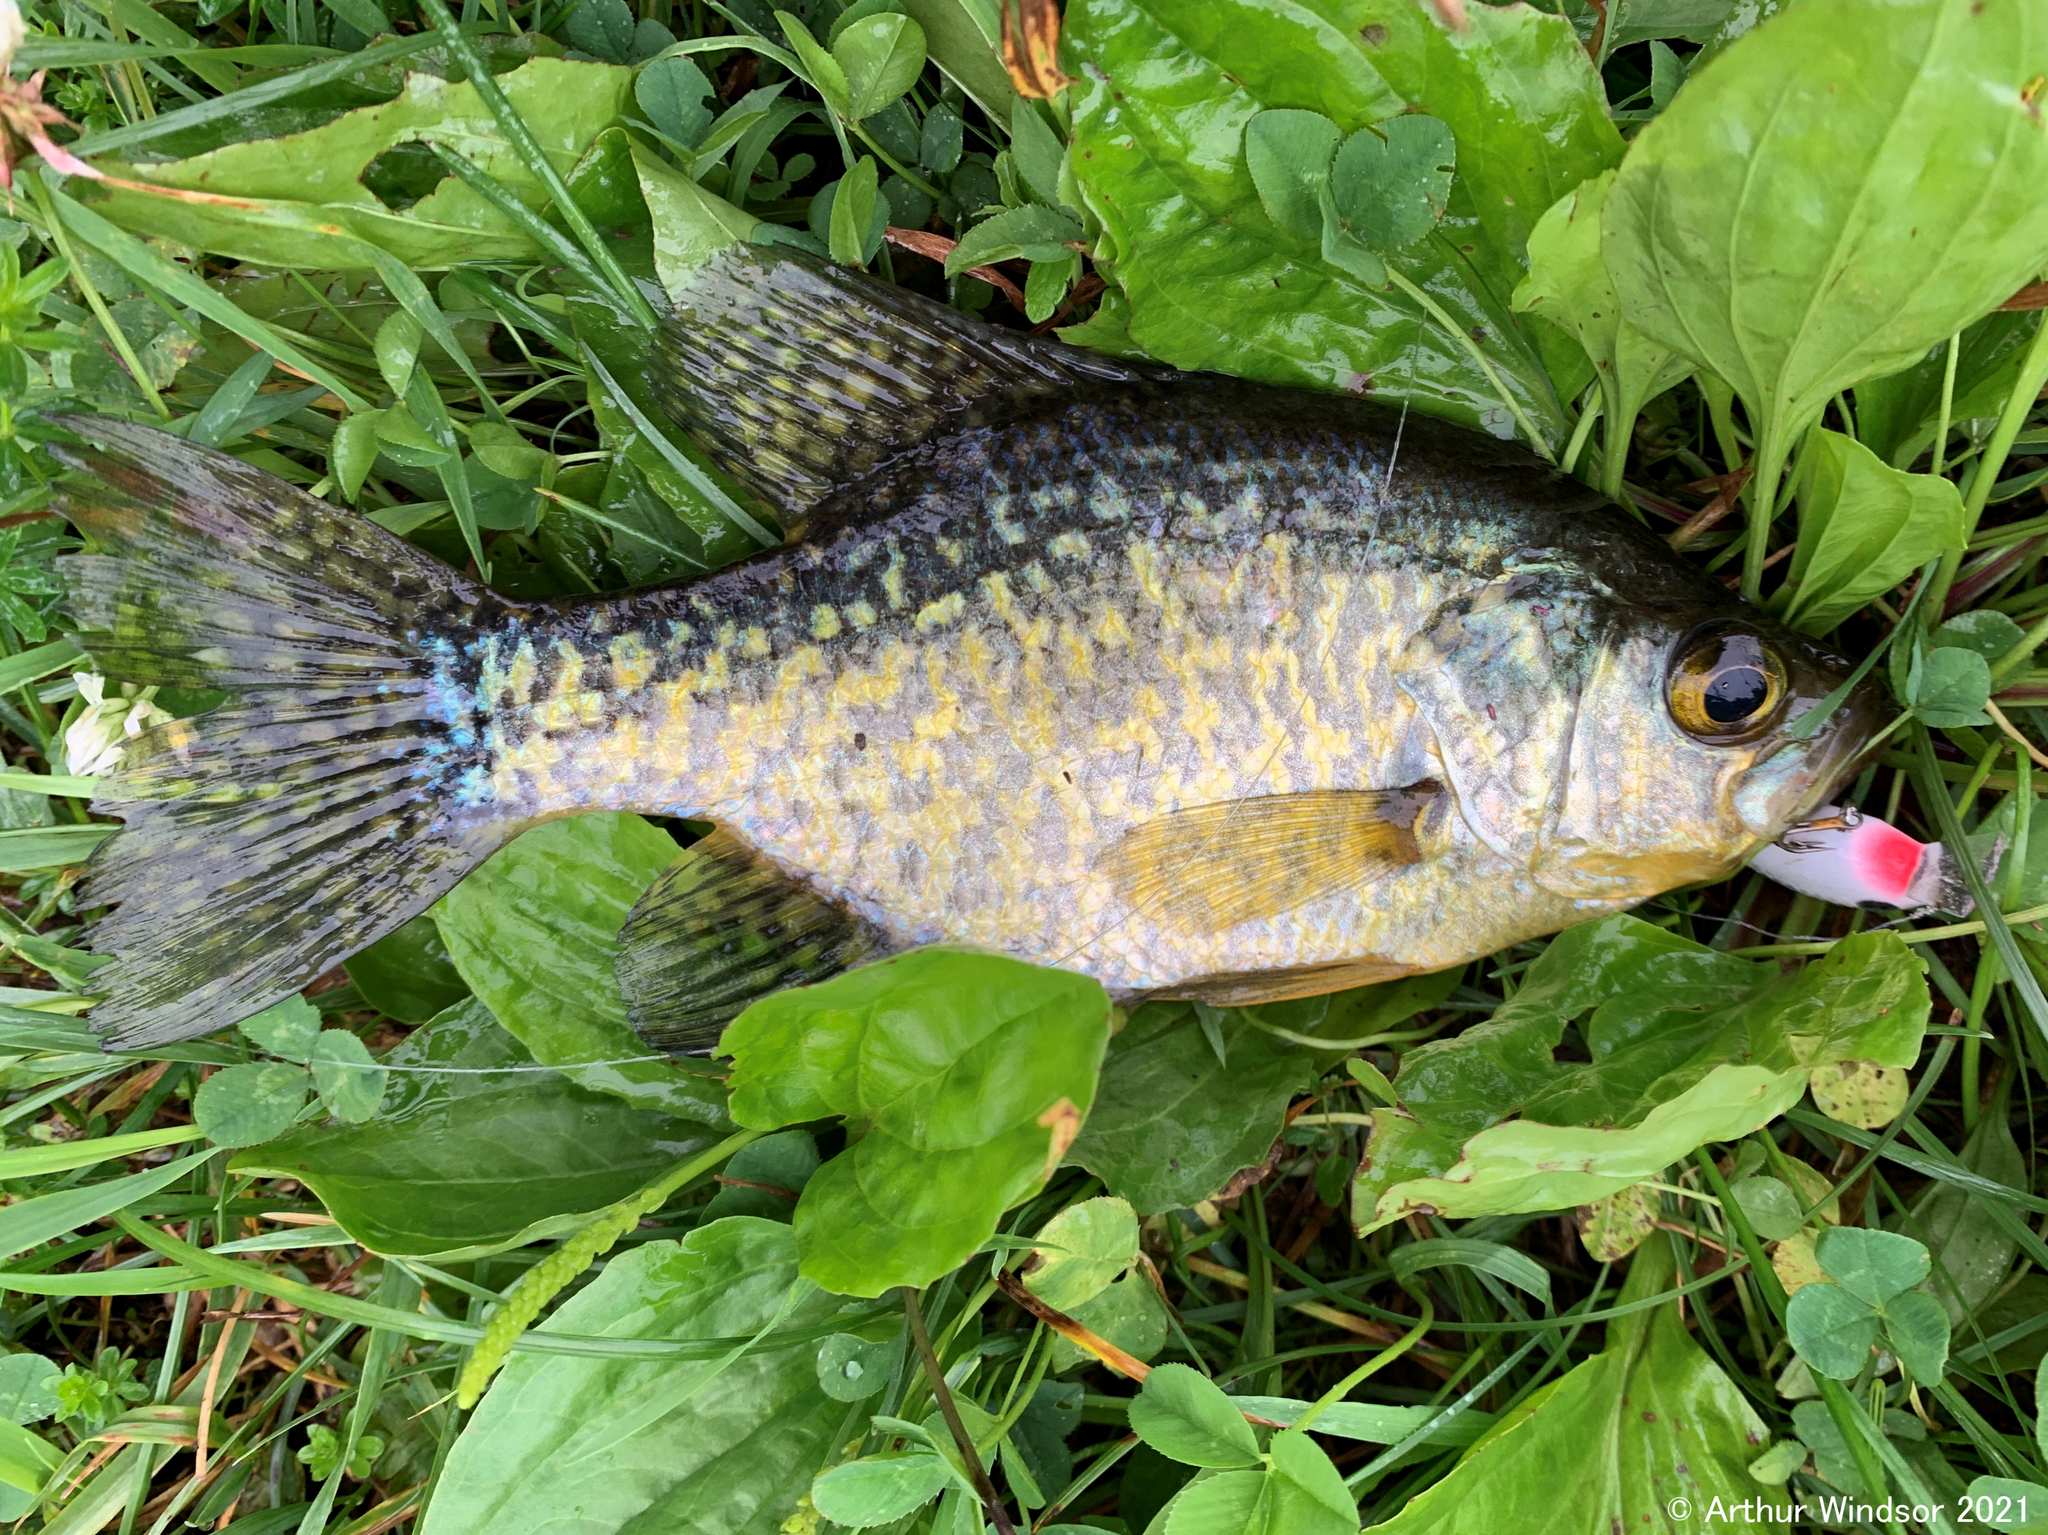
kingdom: Animalia
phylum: Chordata
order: Perciformes
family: Centrarchidae
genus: Pomoxis
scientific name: Pomoxis nigromaculatus
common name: Black crappie
